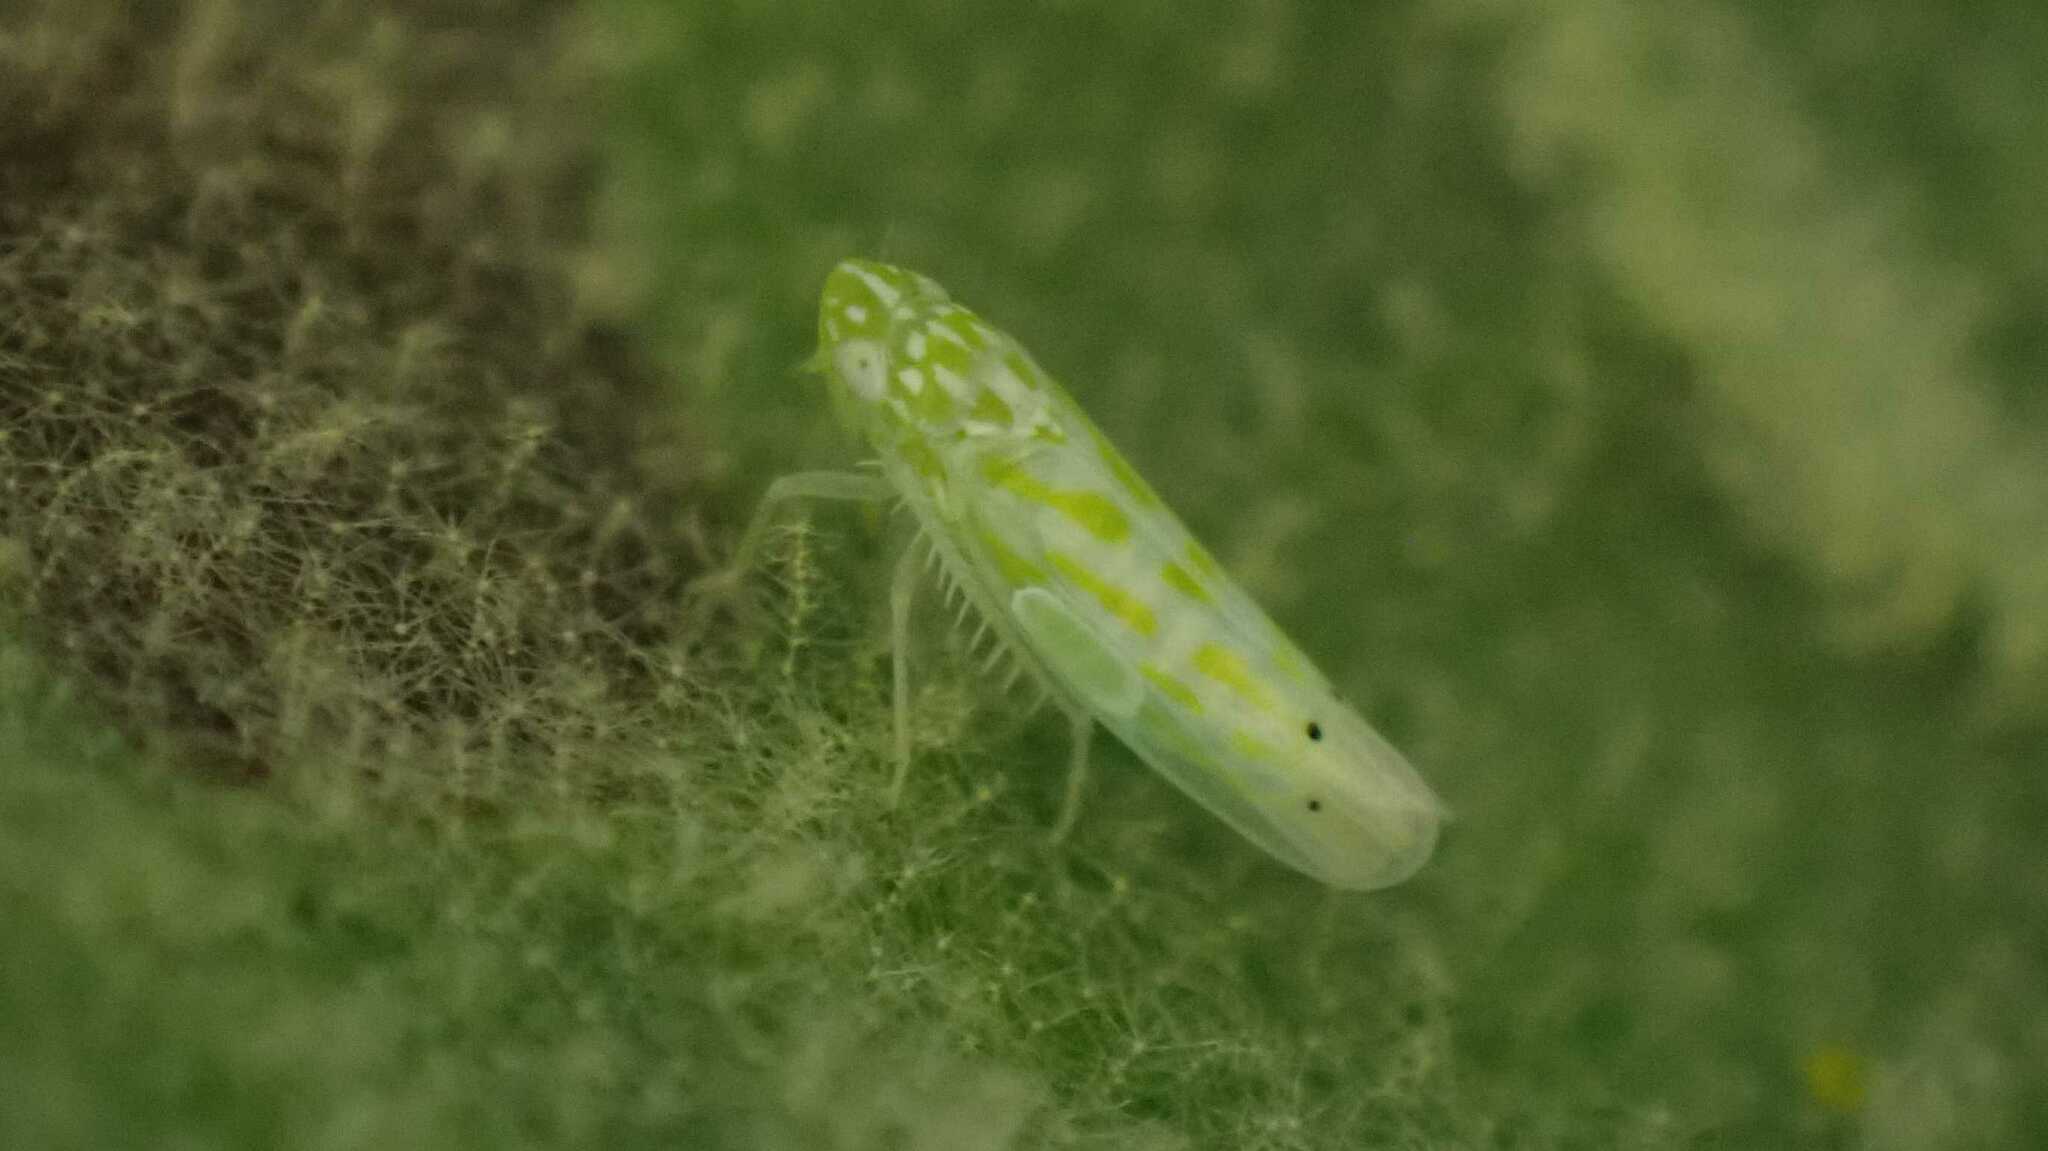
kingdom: Animalia
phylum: Arthropoda
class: Insecta
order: Hemiptera
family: Cicadellidae
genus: Micantulina
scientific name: Micantulina stigmatipennis
